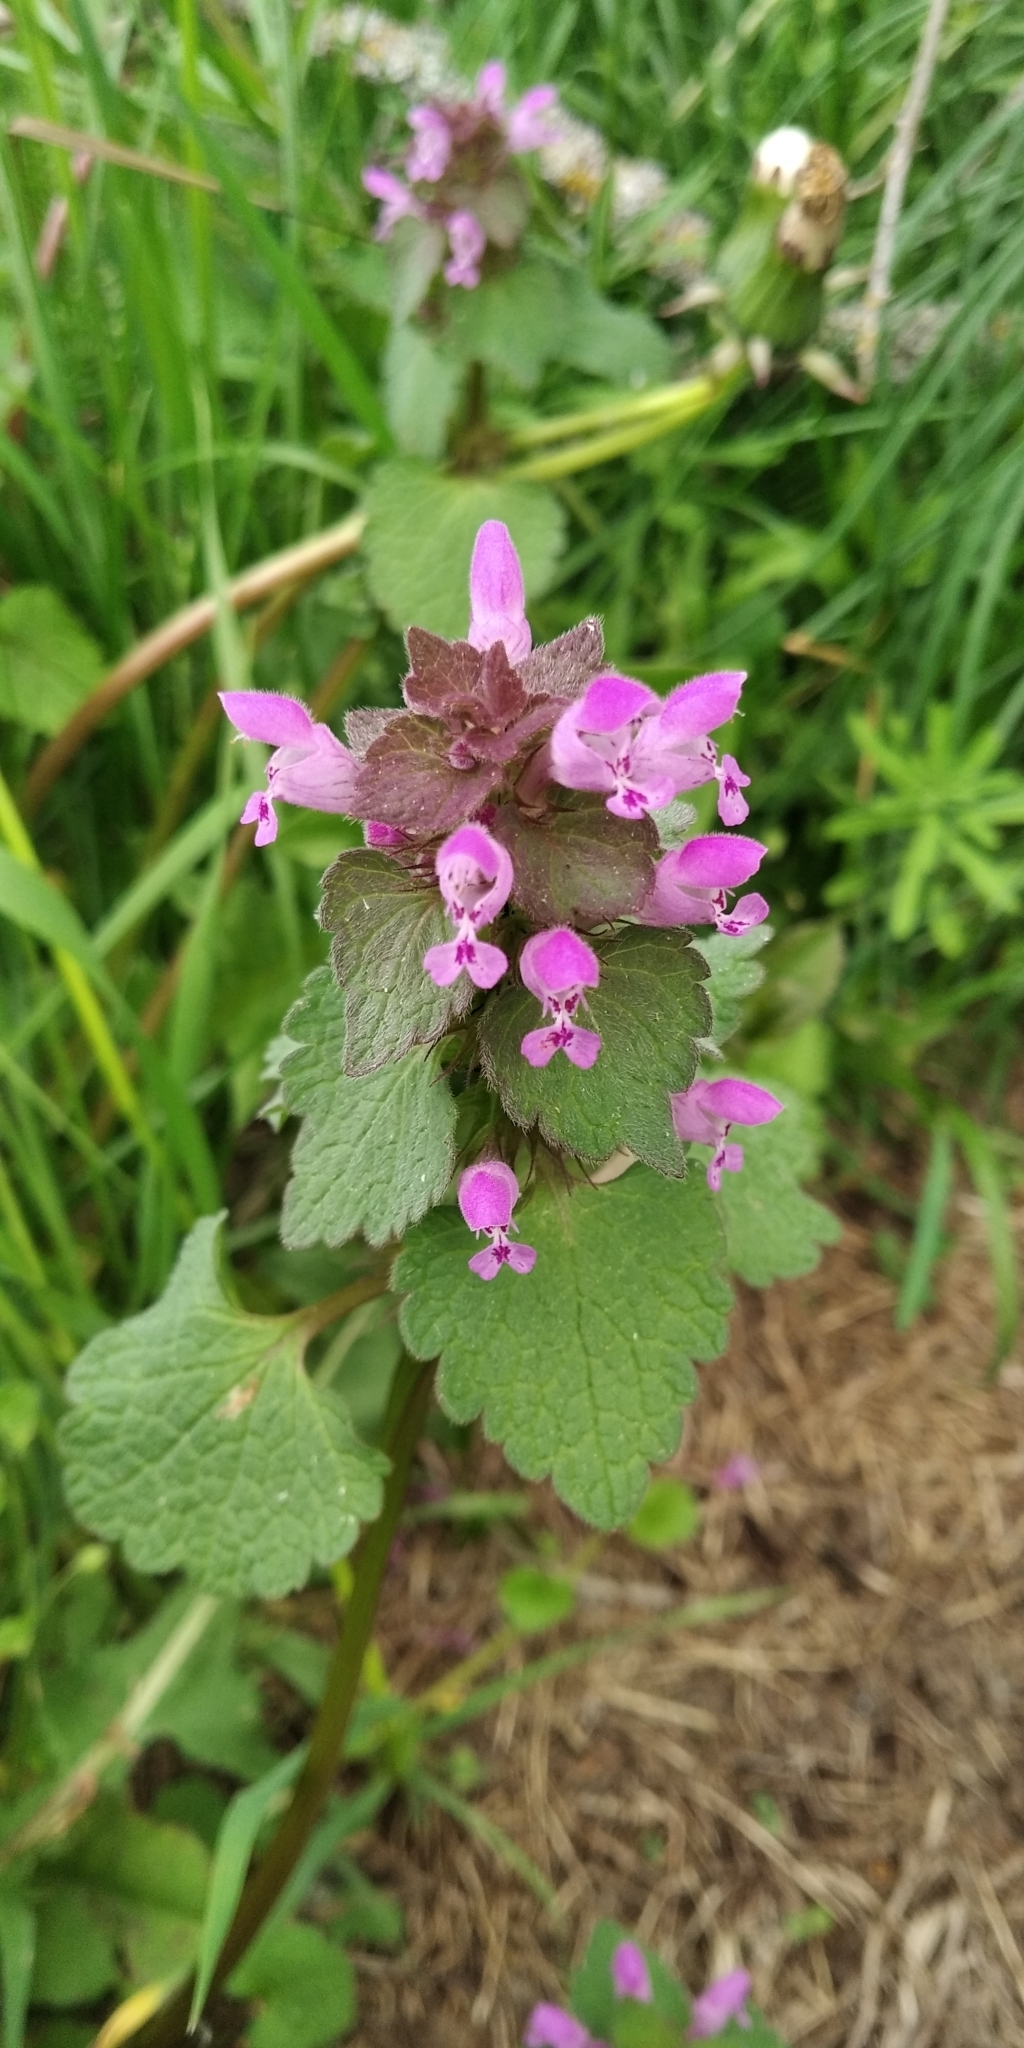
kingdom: Plantae
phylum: Tracheophyta
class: Magnoliopsida
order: Lamiales
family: Lamiaceae
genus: Lamium
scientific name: Lamium purpureum
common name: Red dead-nettle
